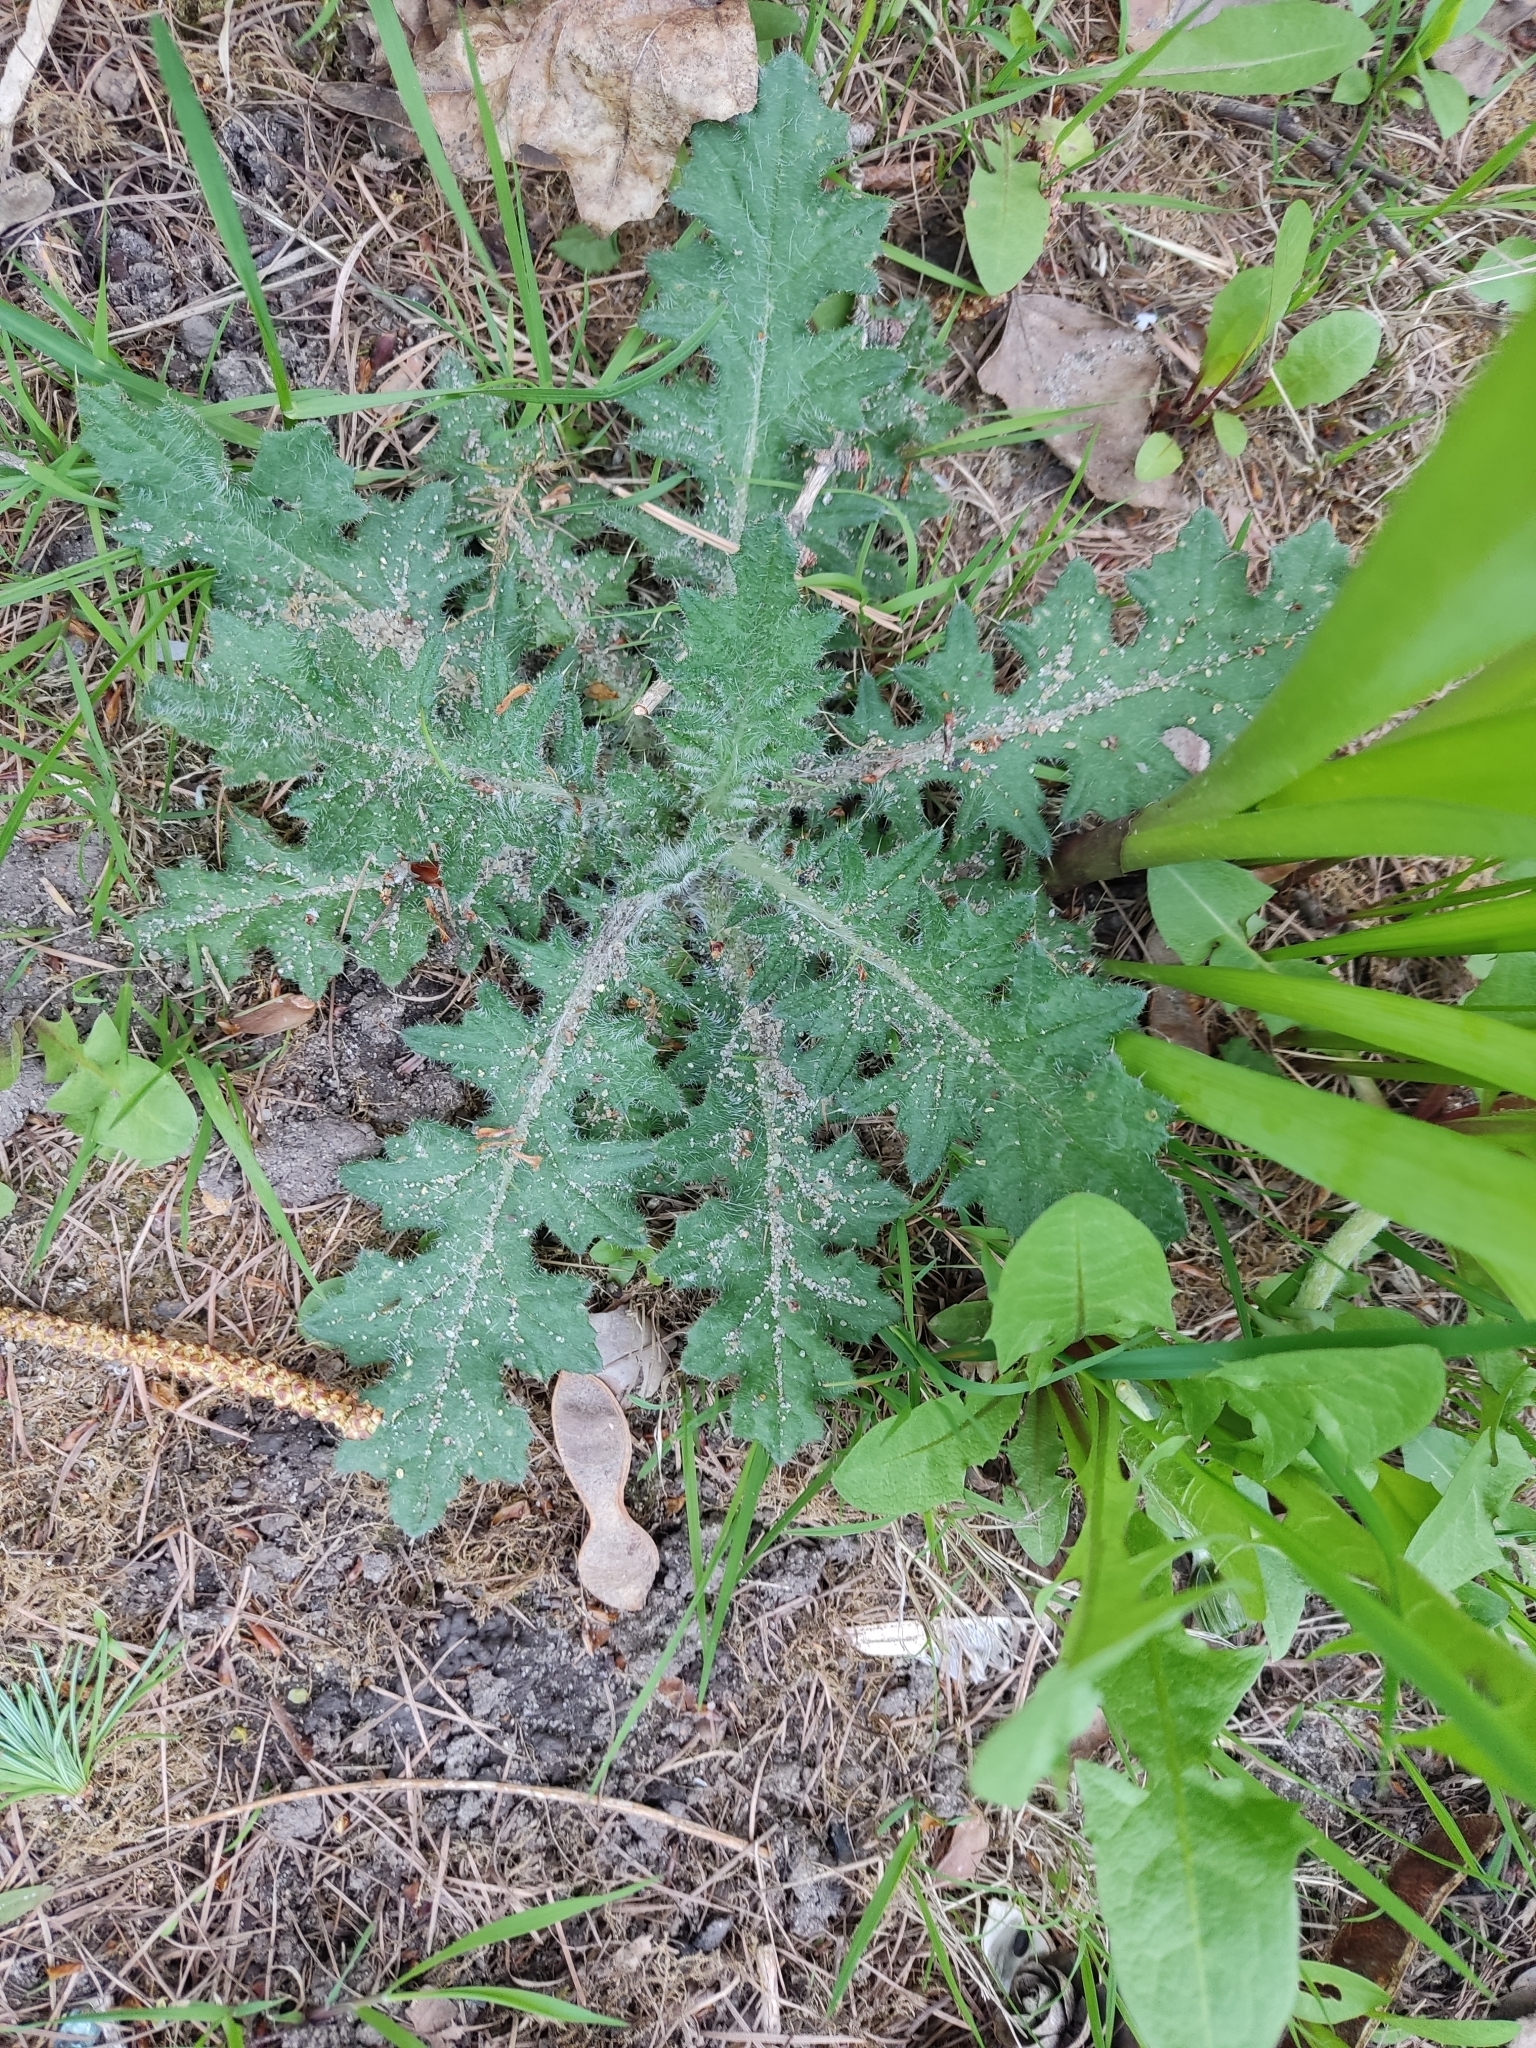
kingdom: Plantae
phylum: Tracheophyta
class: Magnoliopsida
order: Asterales
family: Asteraceae
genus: Cirsium
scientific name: Cirsium vulgare
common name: Bull thistle
